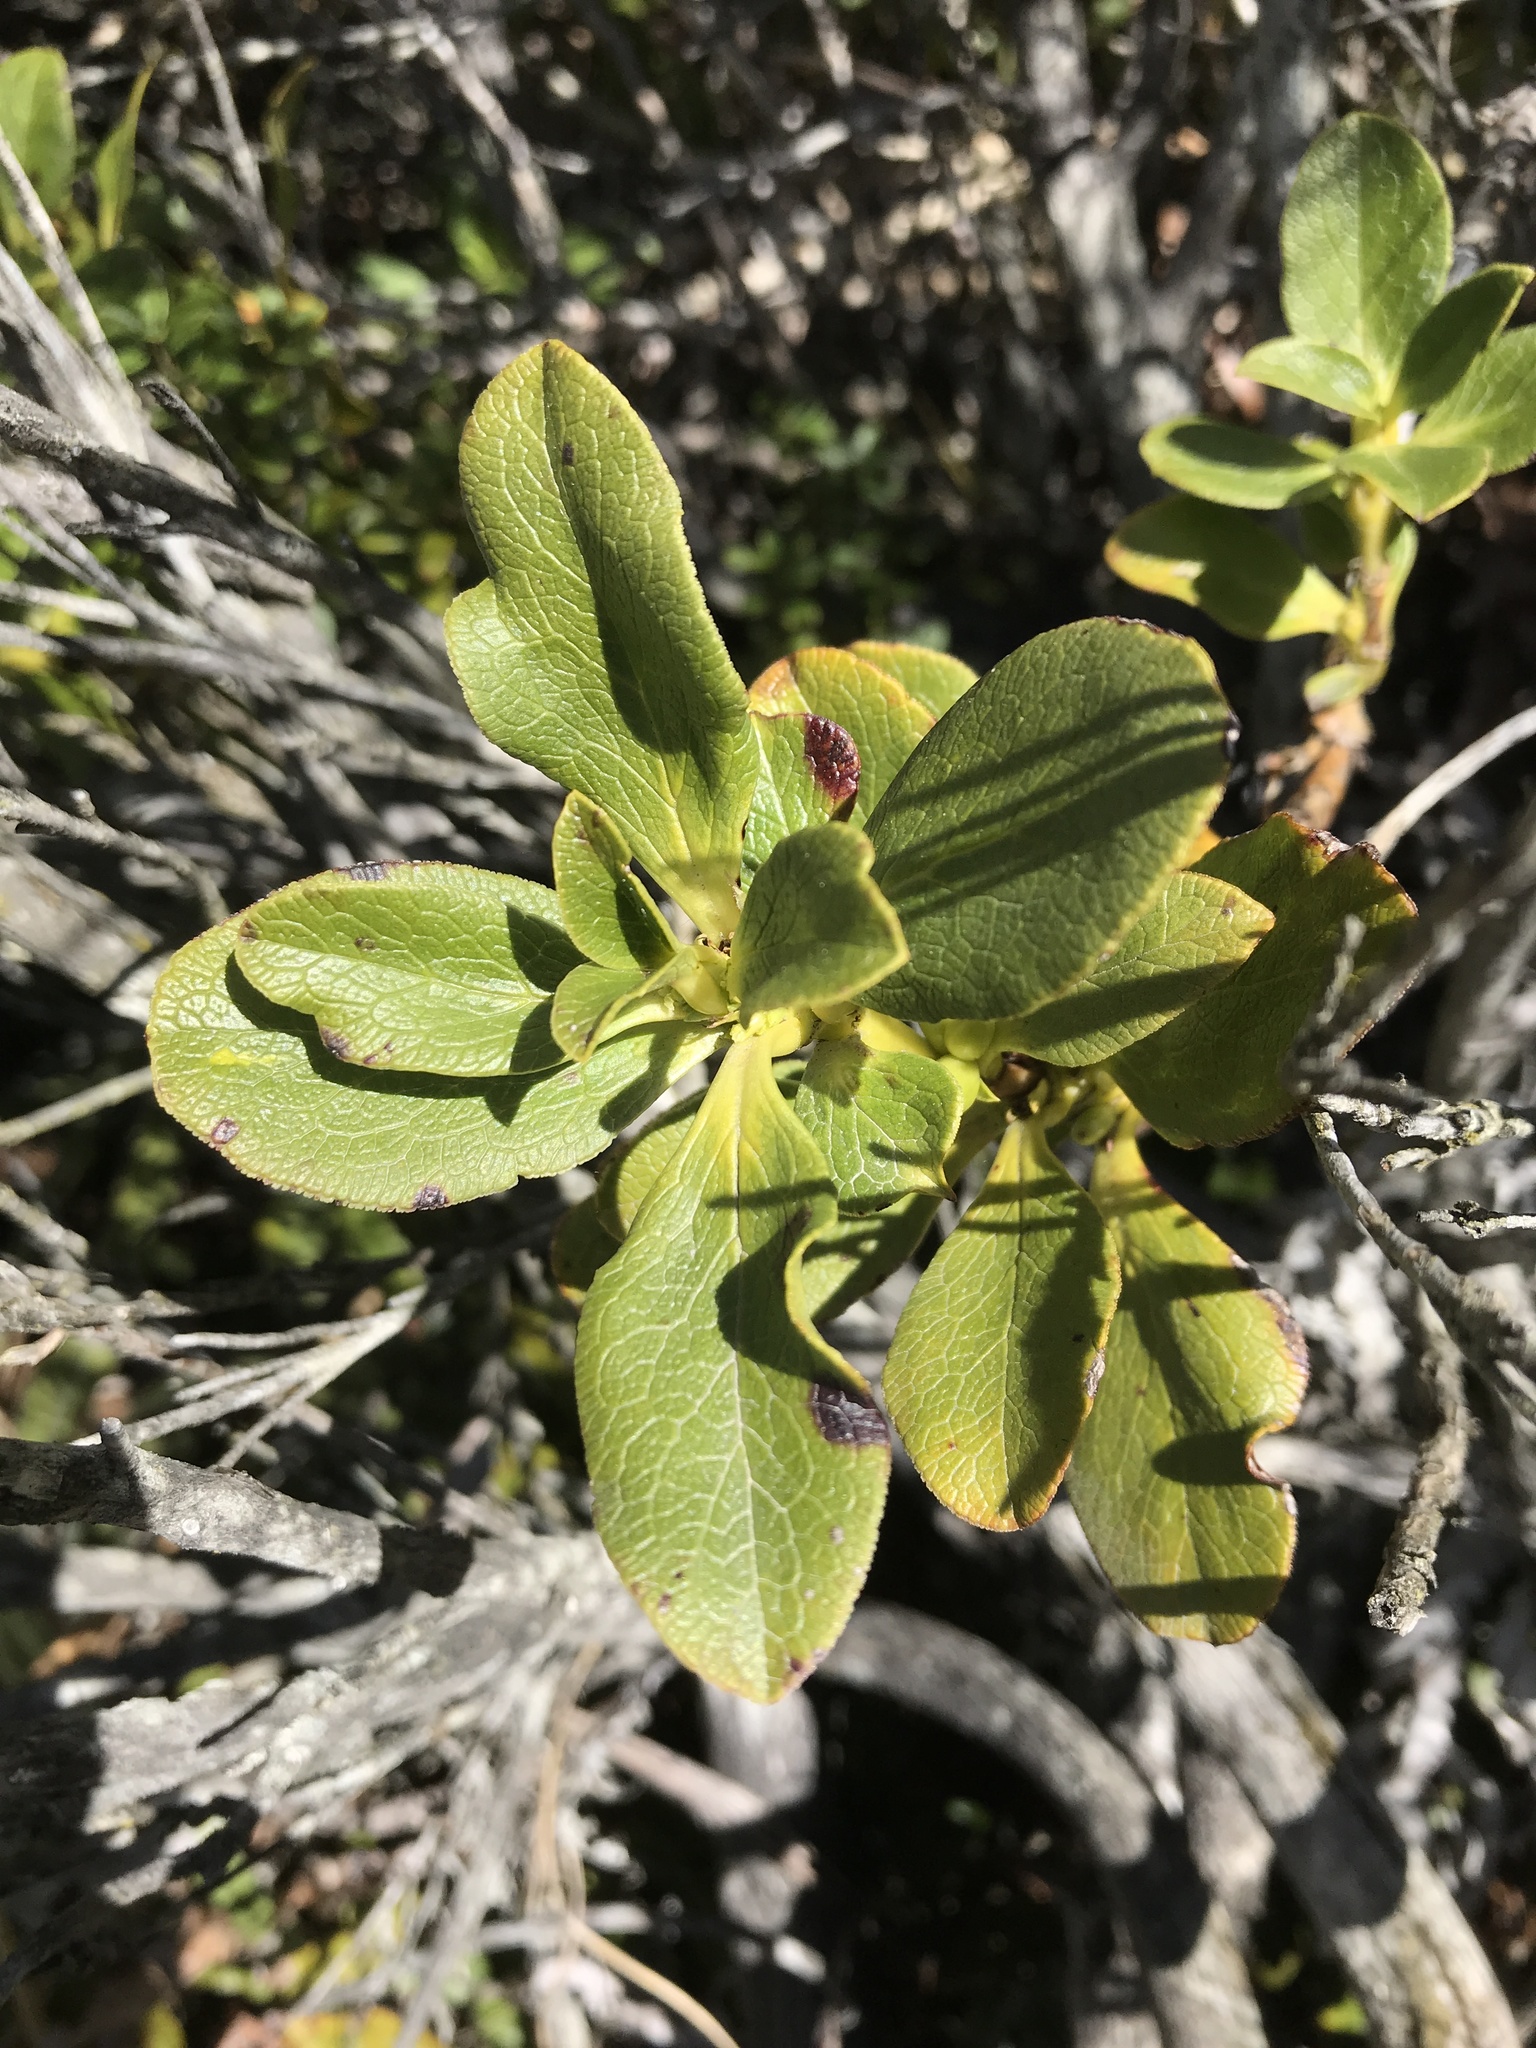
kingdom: Plantae
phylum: Tracheophyta
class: Magnoliopsida
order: Gentianales
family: Rubiaceae
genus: Coprosma
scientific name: Coprosma serrulata
